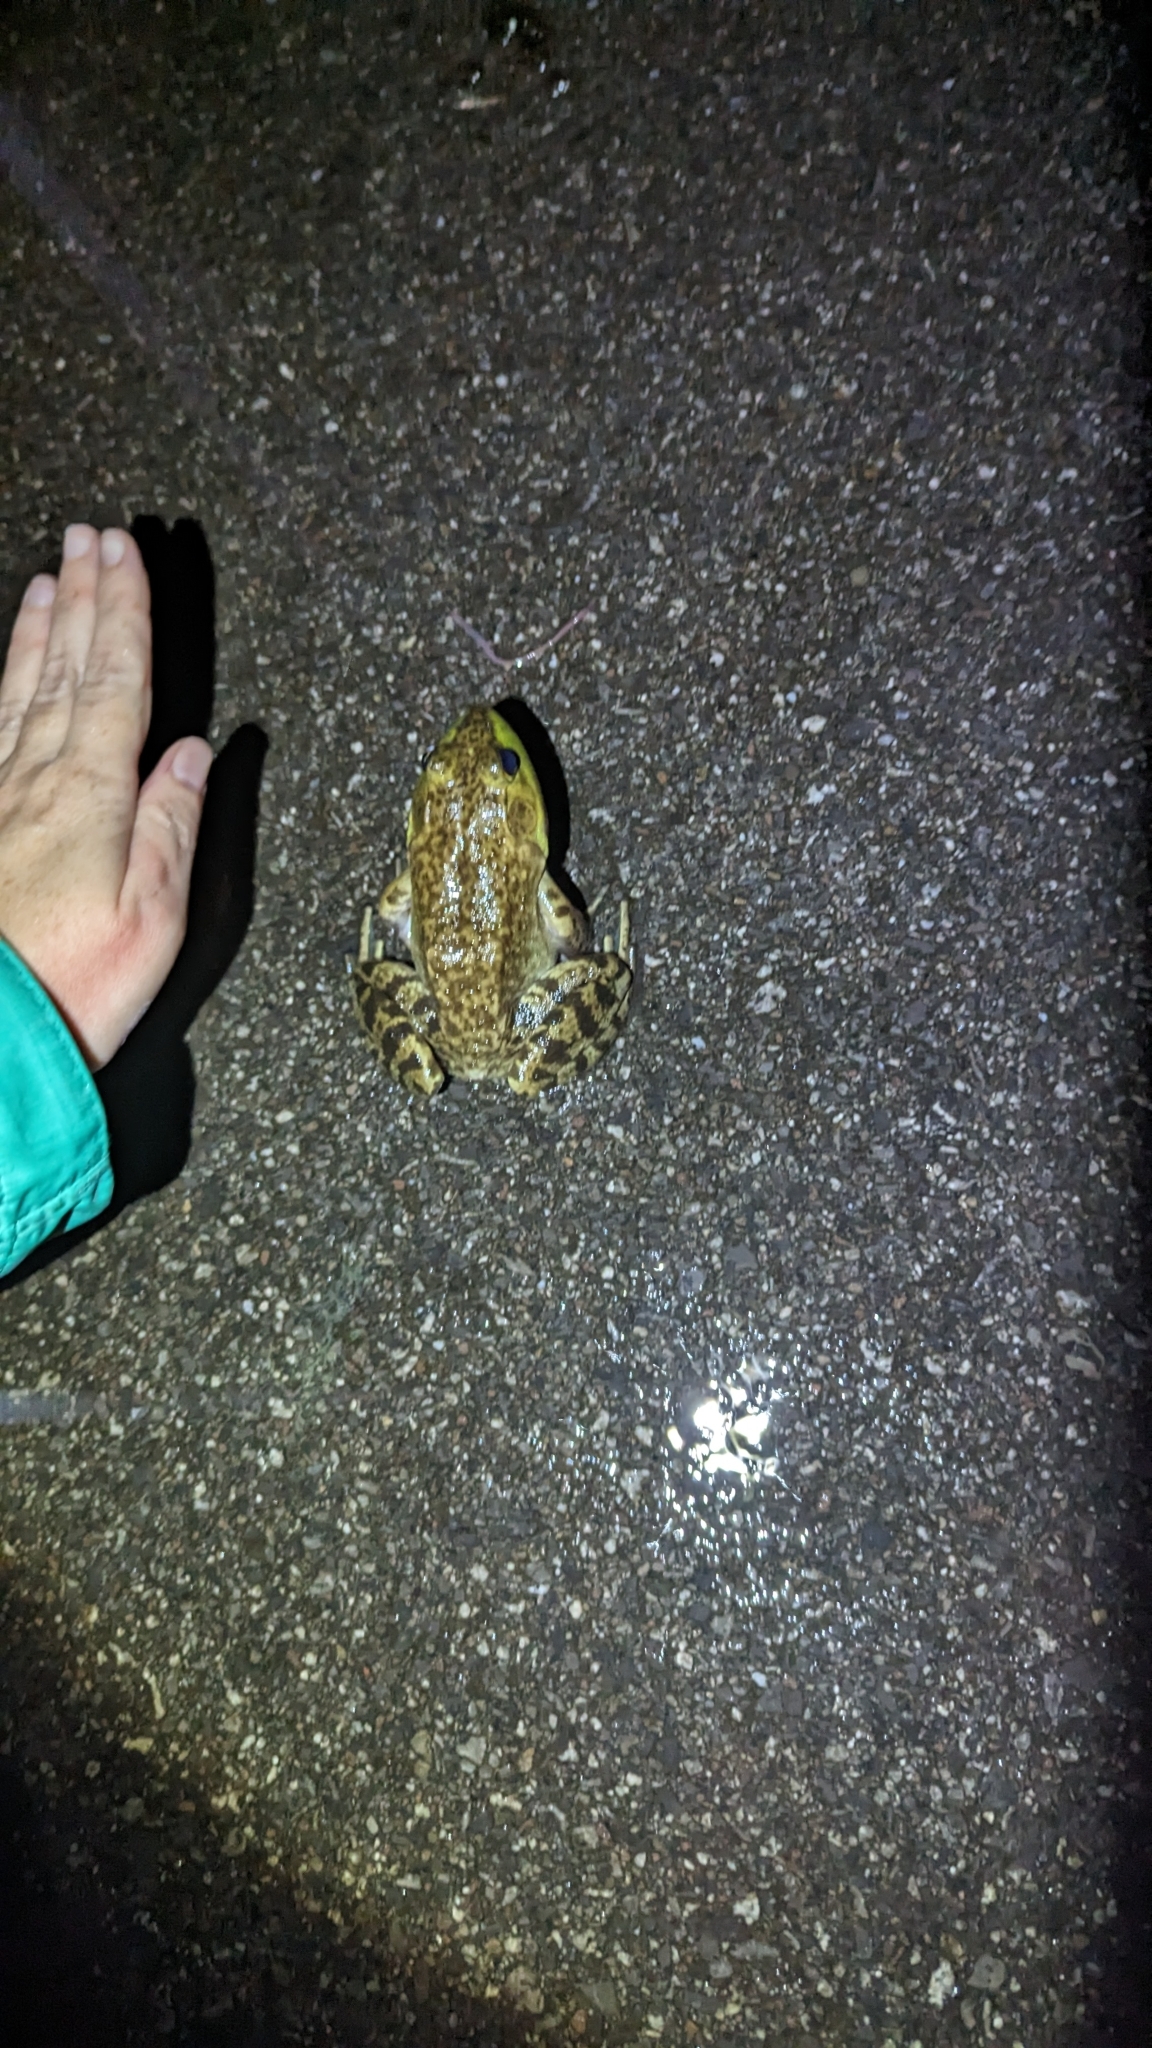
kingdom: Animalia
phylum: Chordata
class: Amphibia
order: Anura
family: Ranidae
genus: Lithobates
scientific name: Lithobates catesbeianus
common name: American bullfrog
